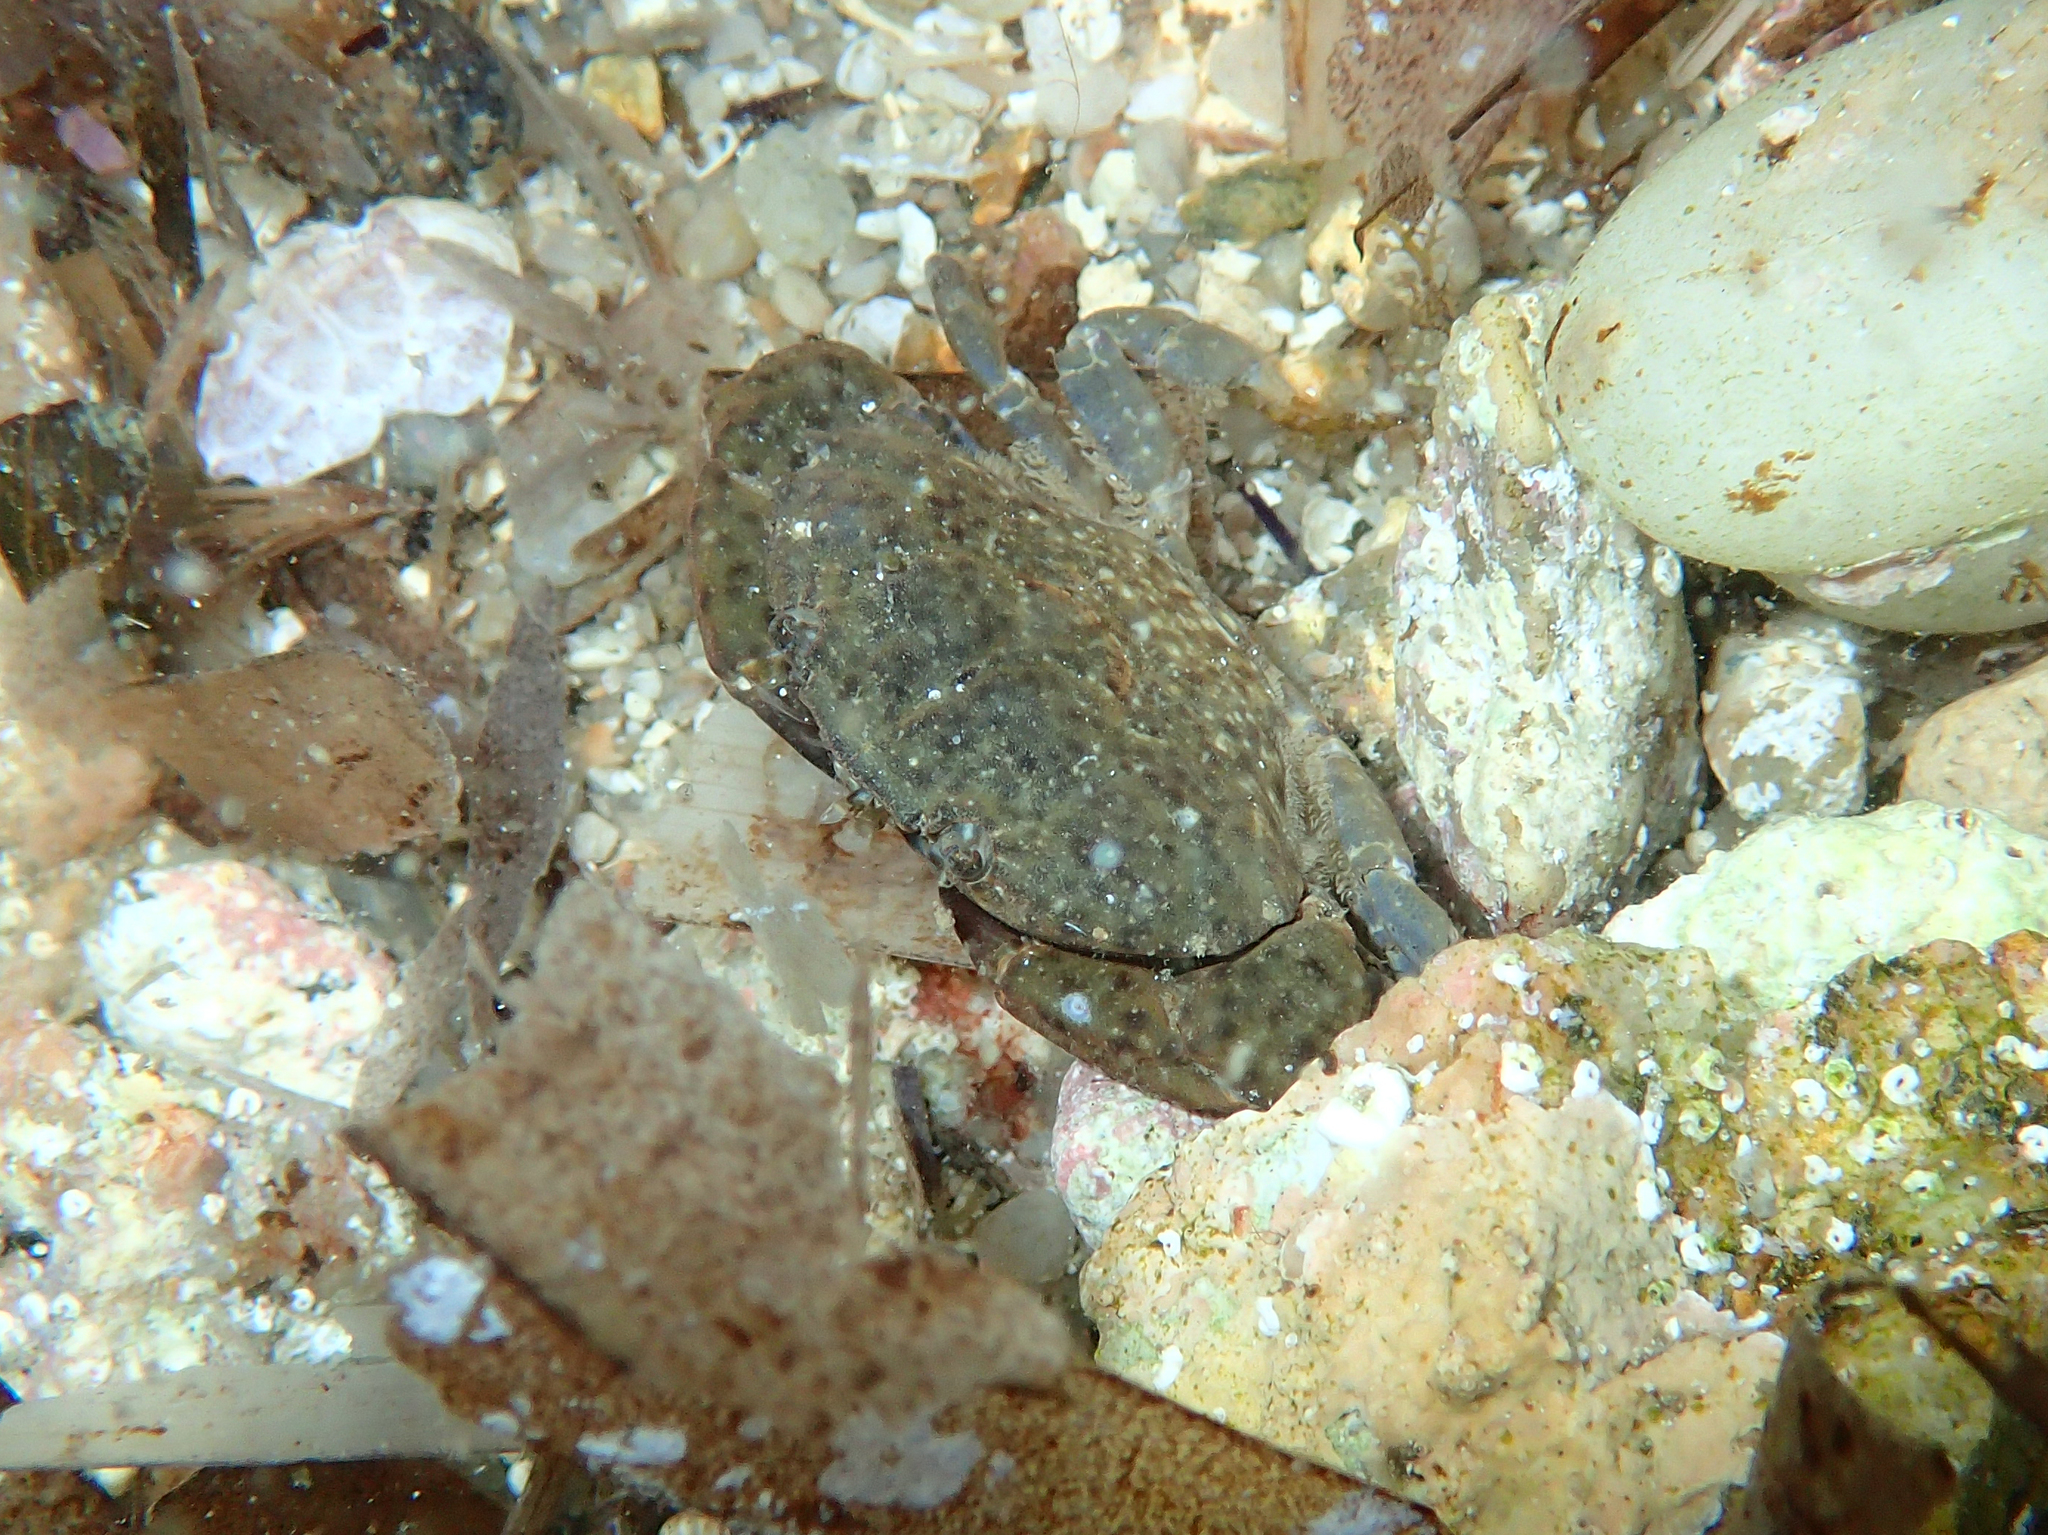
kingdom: Animalia
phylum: Arthropoda
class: Malacostraca
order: Decapoda
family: Xanthidae
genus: Xantho
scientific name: Xantho poressa
